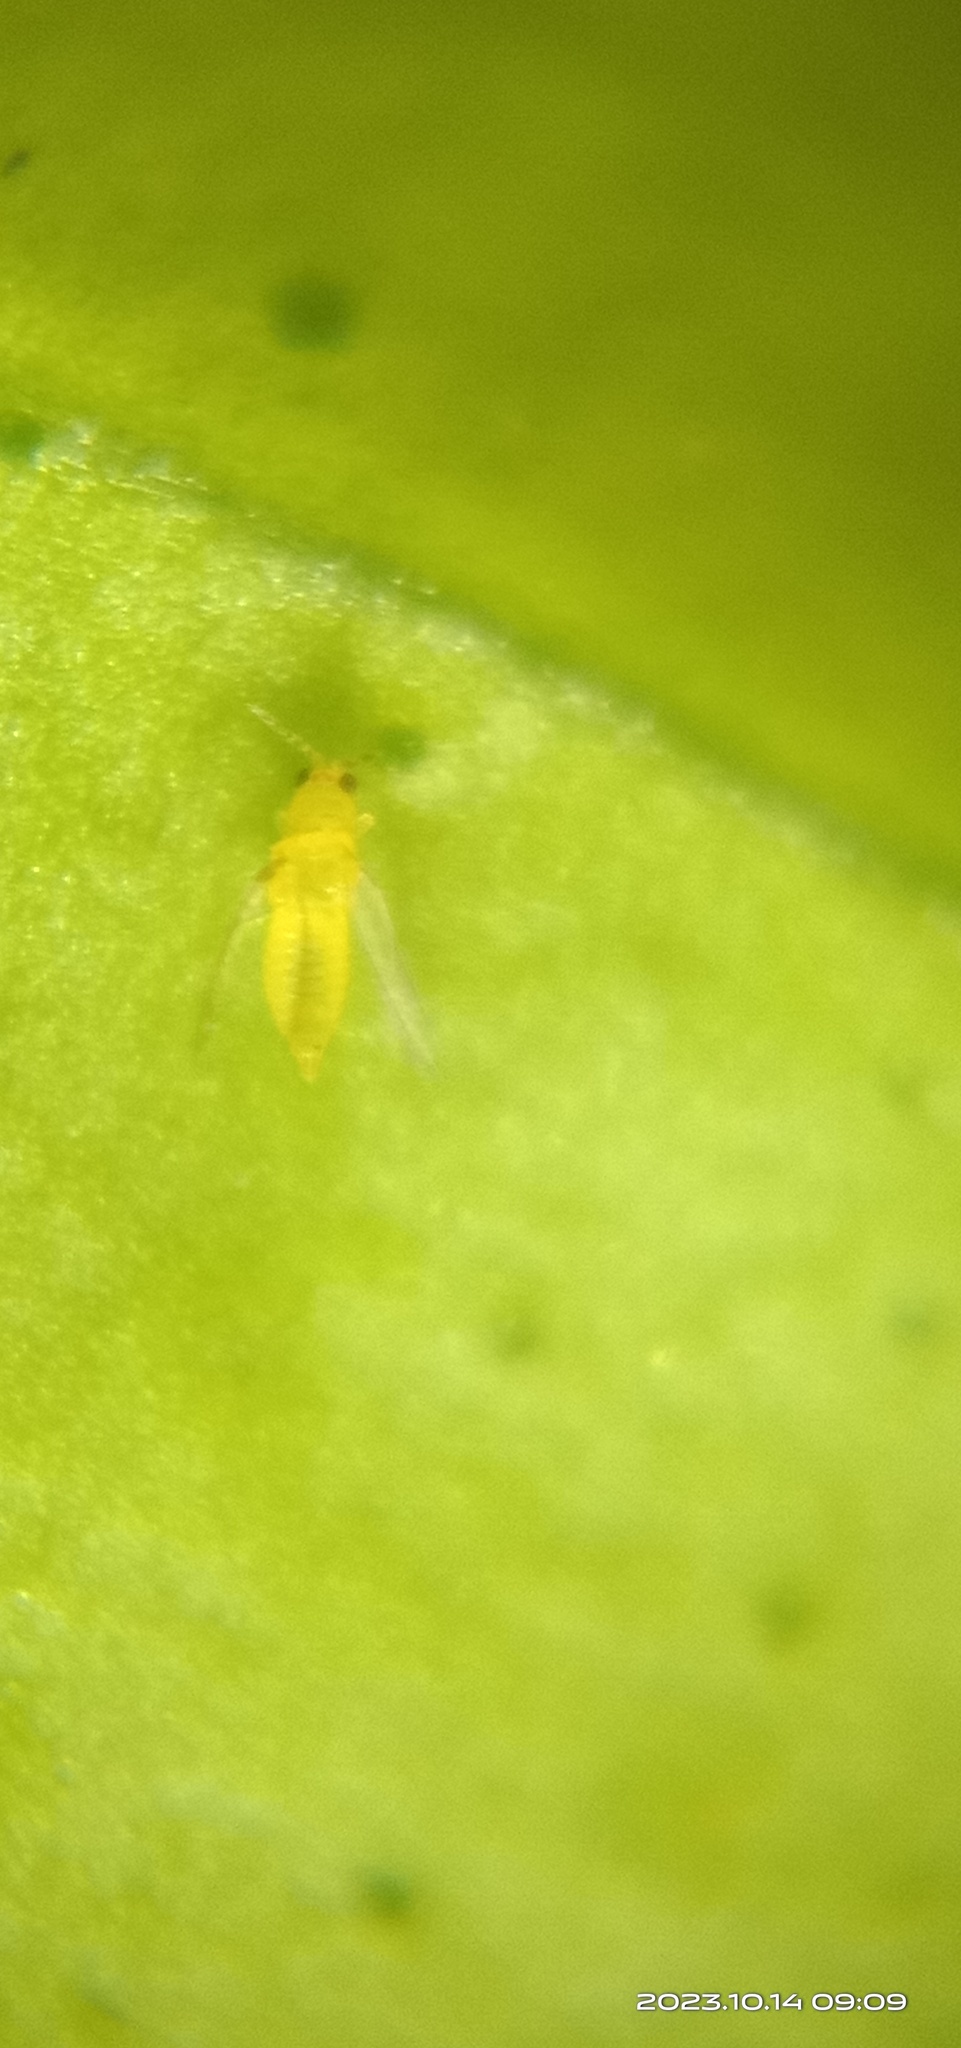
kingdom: Animalia
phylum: Arthropoda
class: Insecta
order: Thysanoptera
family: Thripidae
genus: Scirtothrips
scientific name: Scirtothrips dorsalis
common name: Thrips
